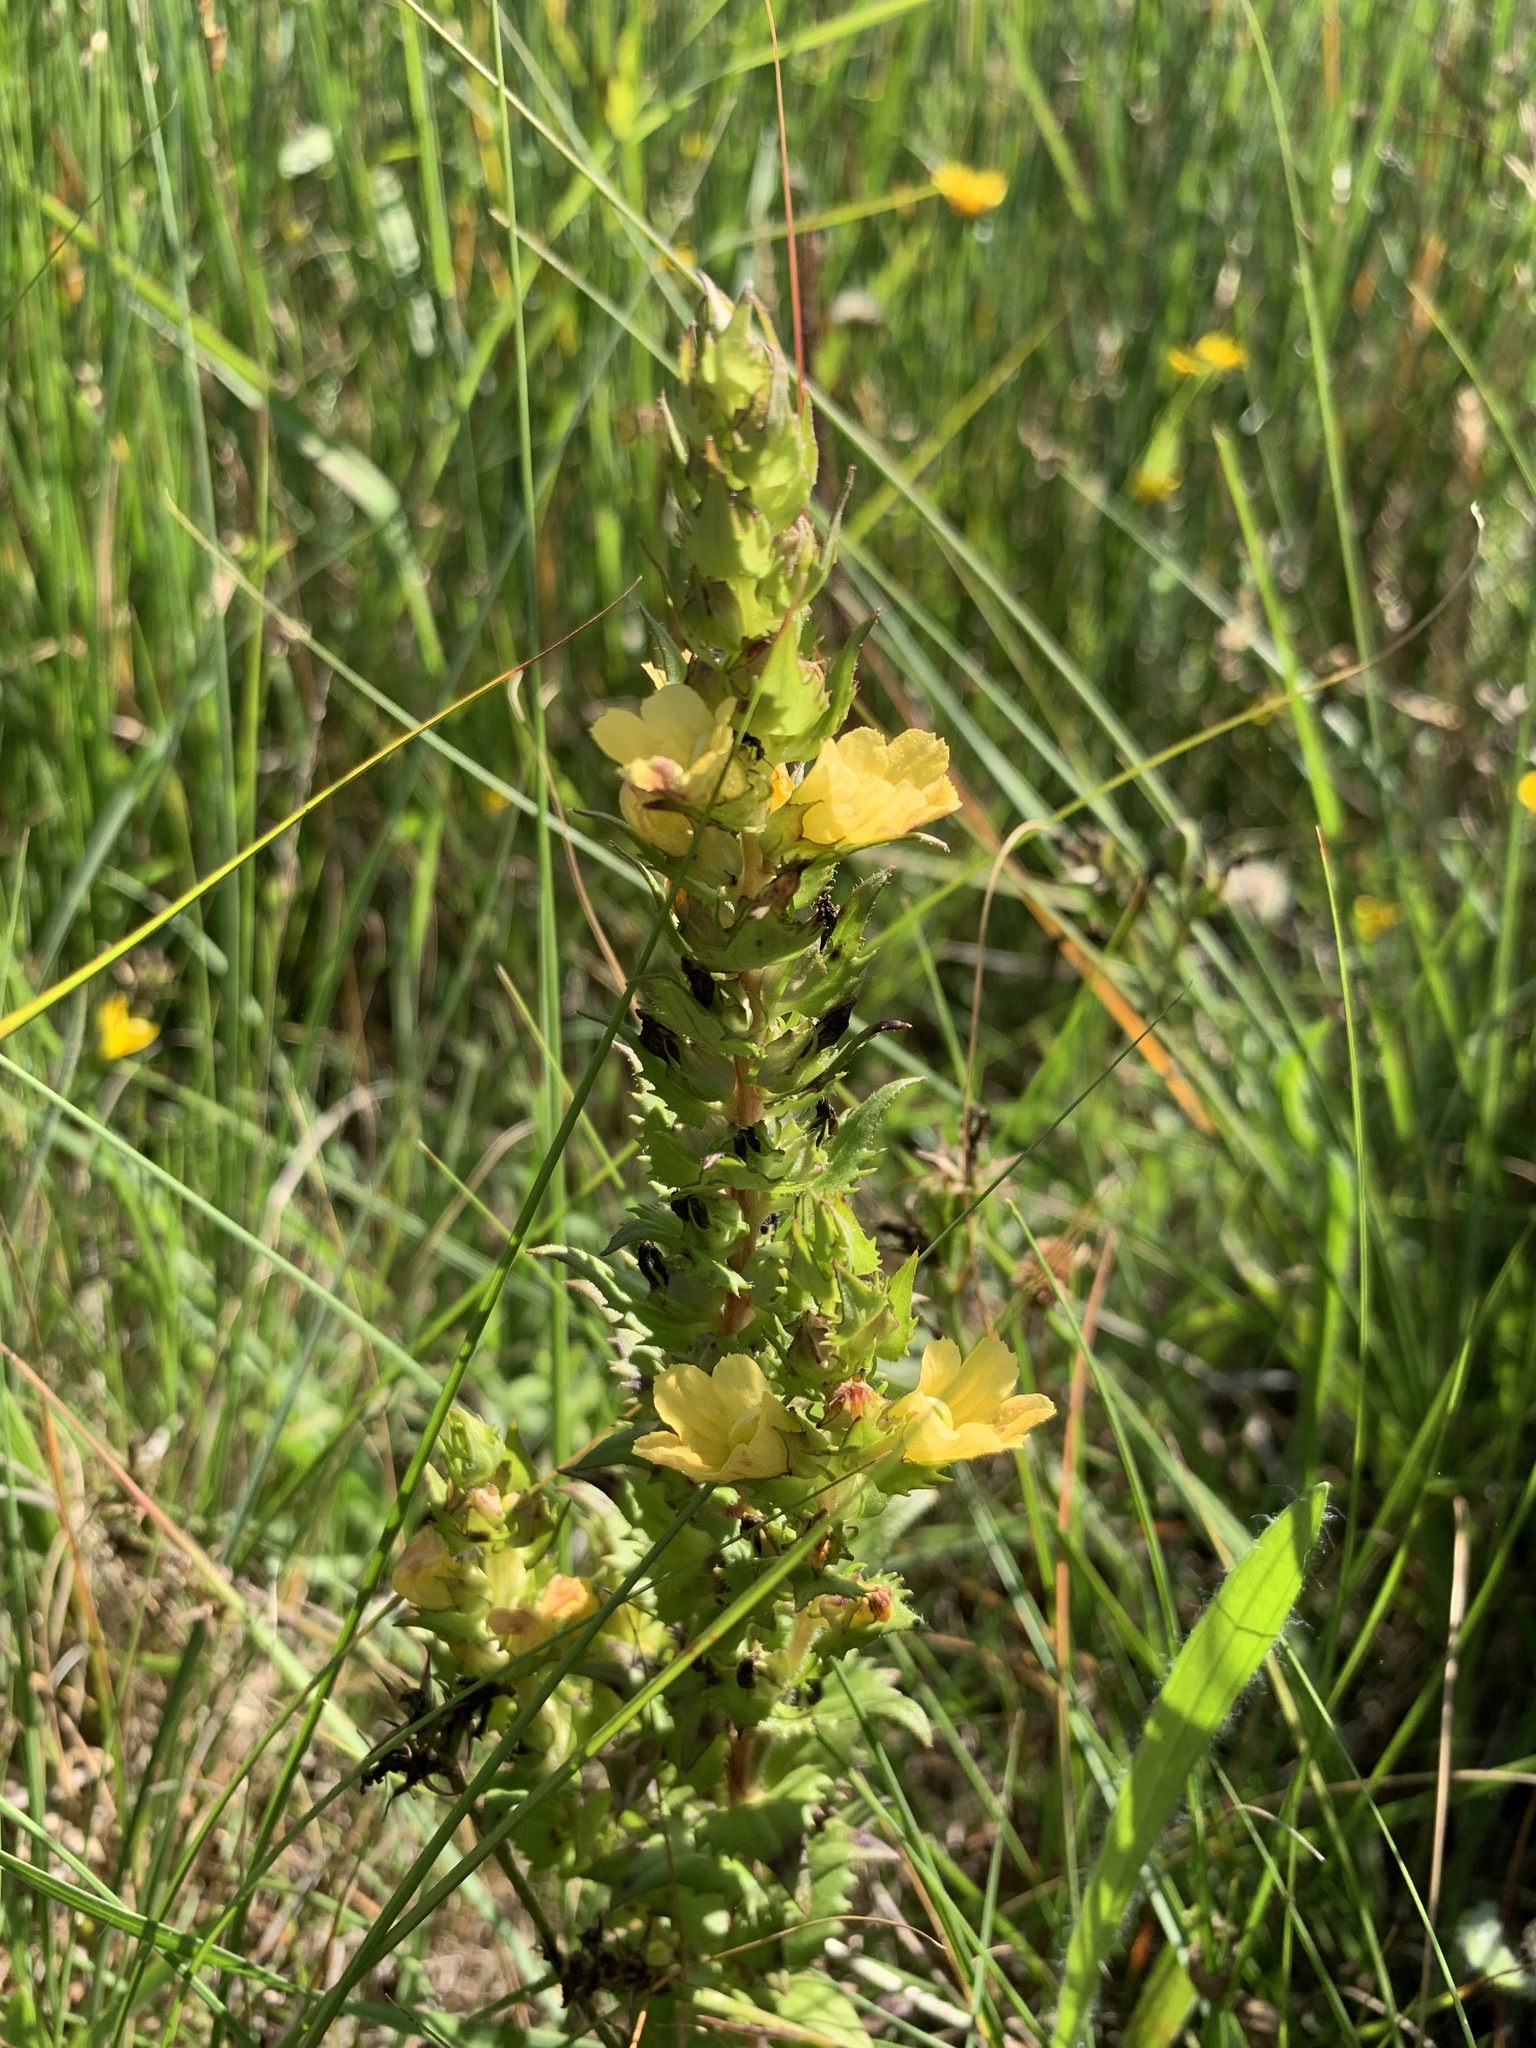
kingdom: Plantae
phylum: Tracheophyta
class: Magnoliopsida
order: Lamiales
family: Orobanchaceae
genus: Alectra
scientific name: Alectra sessiliflora
